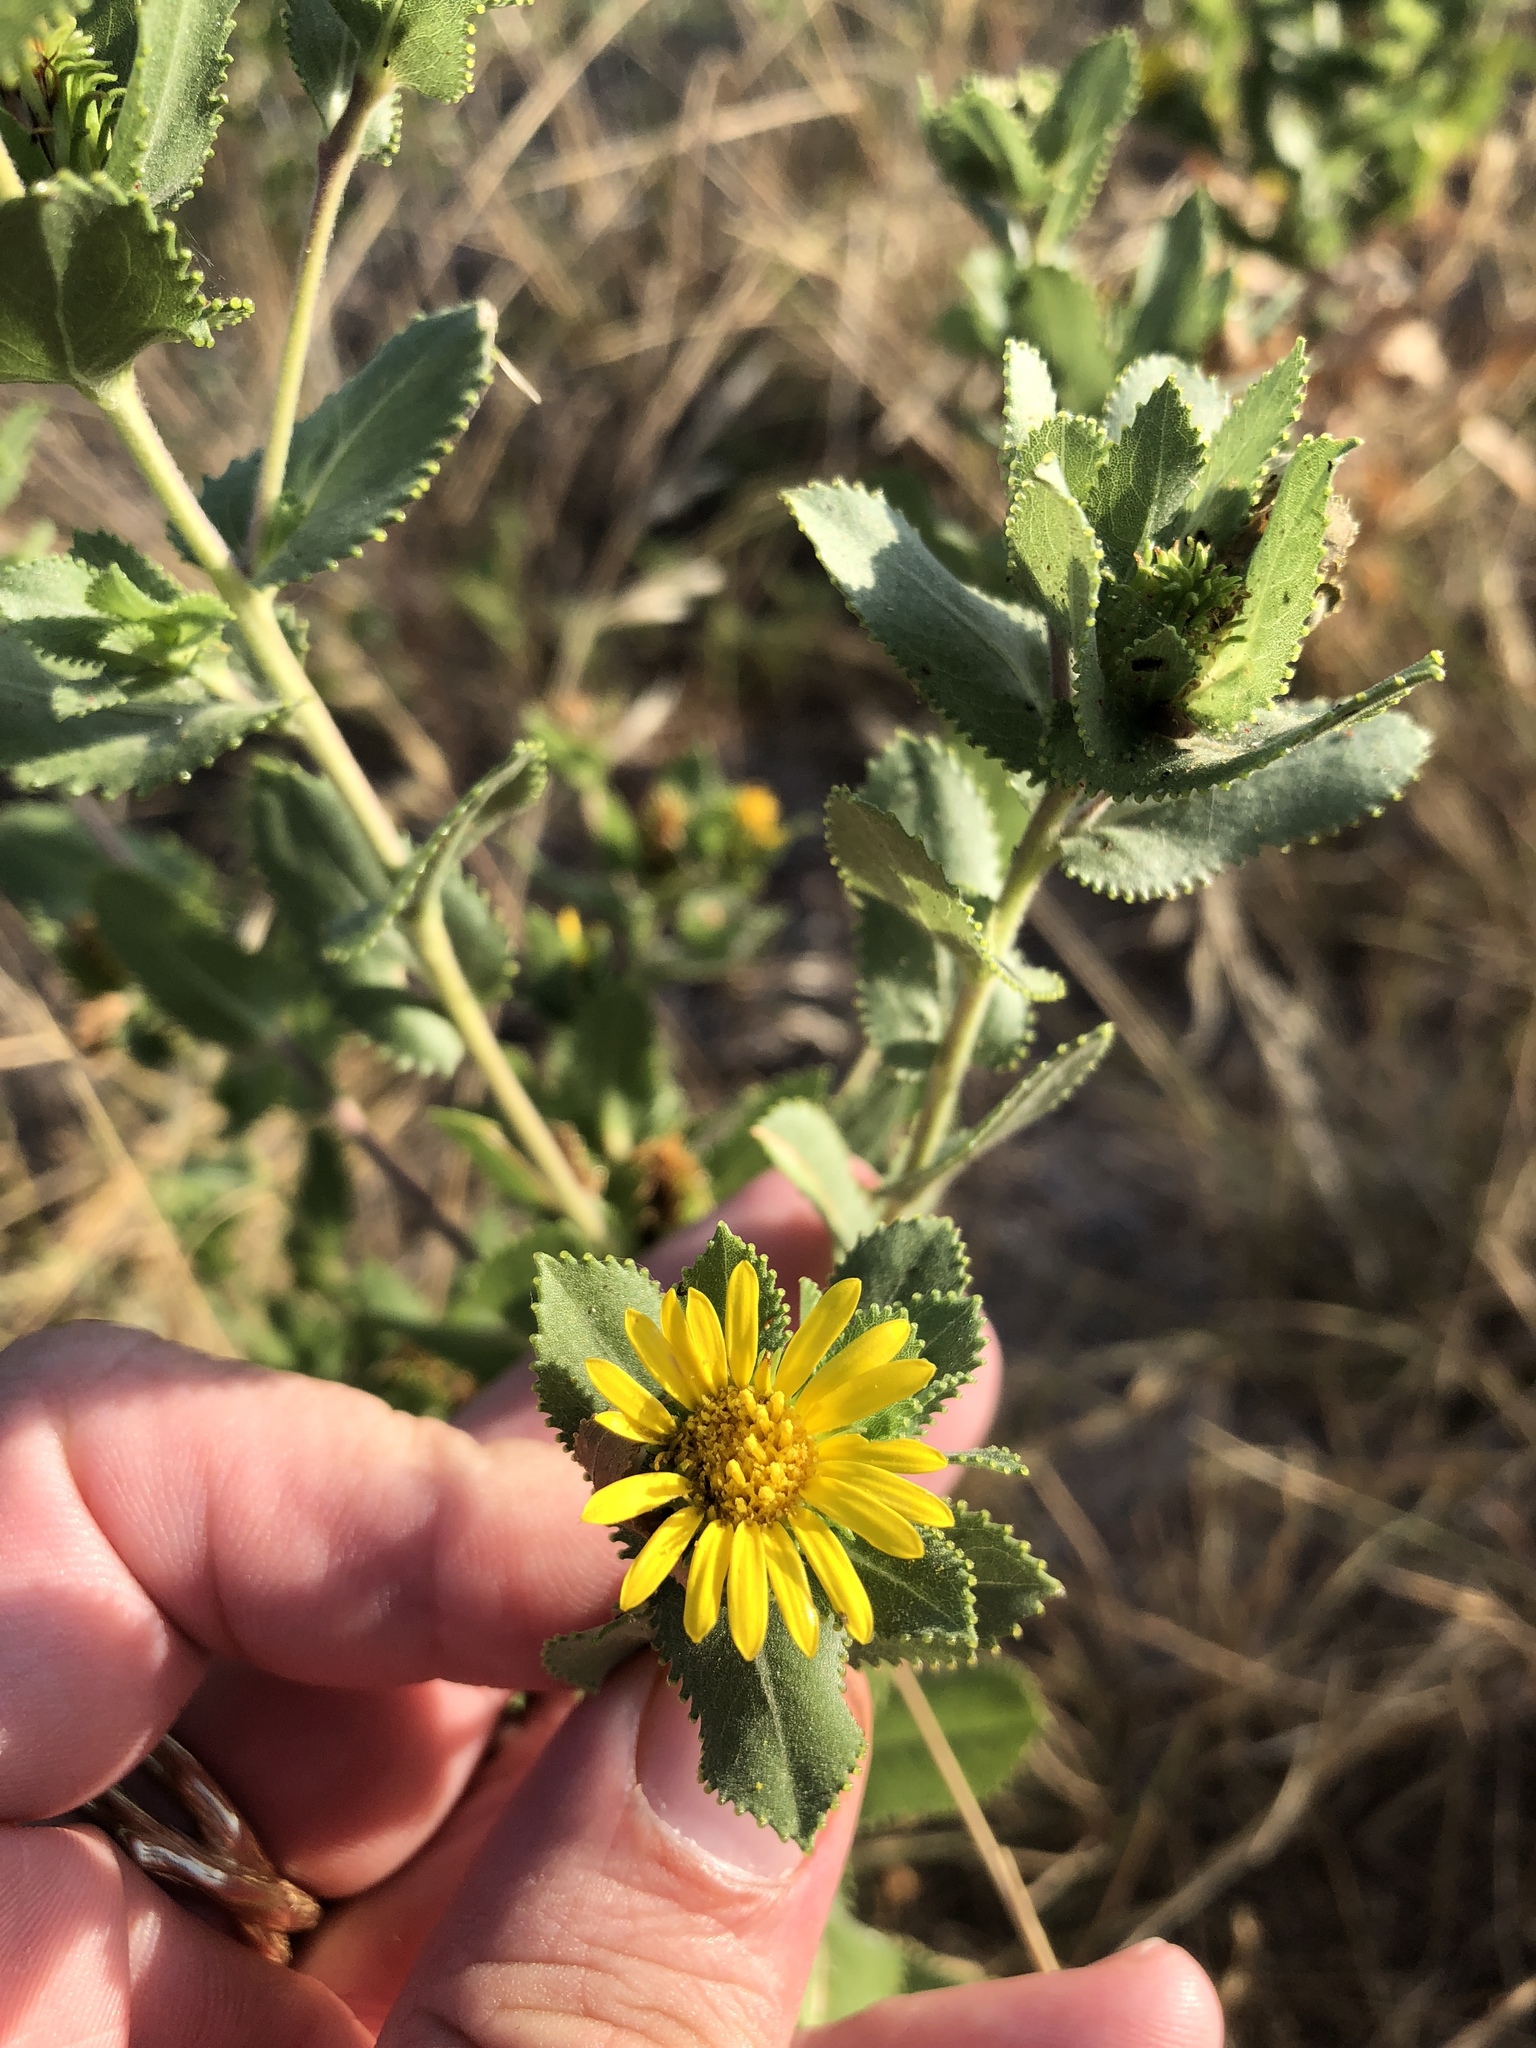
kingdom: Plantae
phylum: Tracheophyta
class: Magnoliopsida
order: Asterales
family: Asteraceae
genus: Grindelia
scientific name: Grindelia adenodonta
